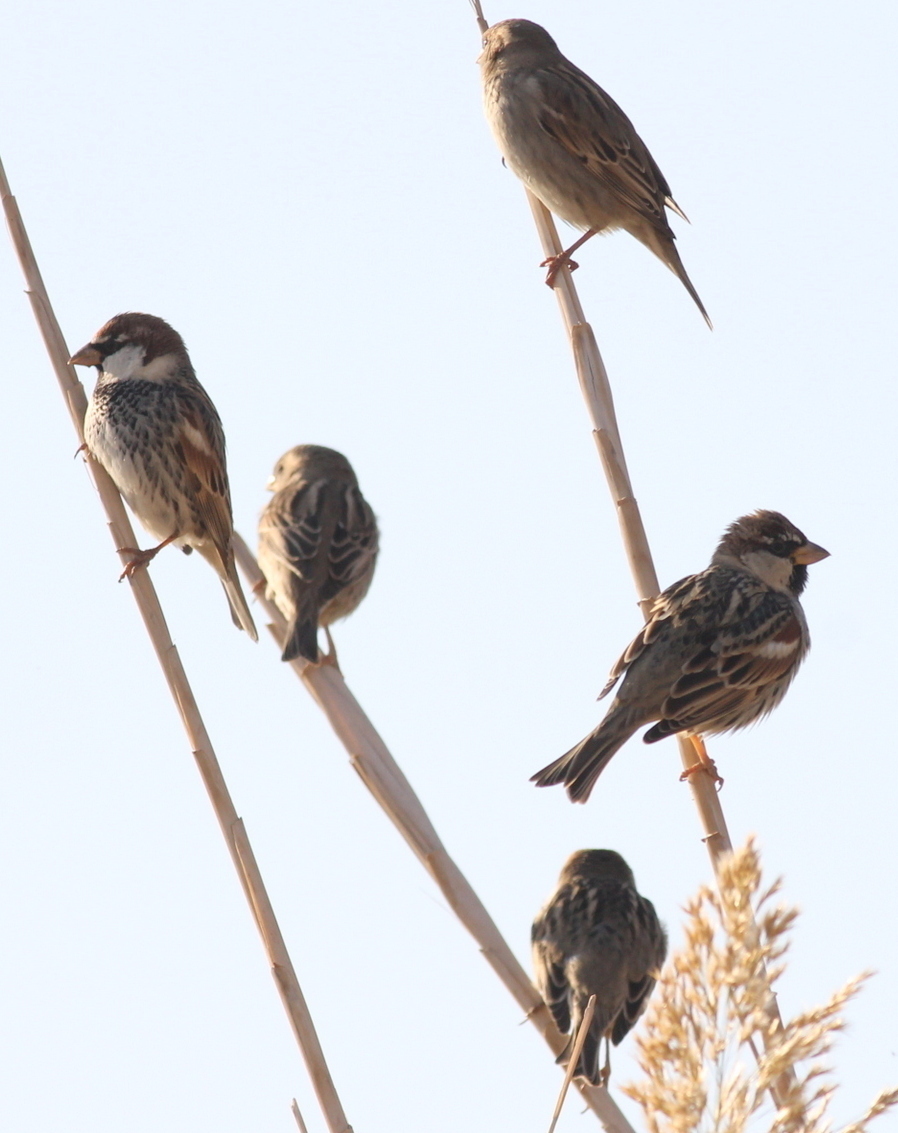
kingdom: Animalia
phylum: Chordata
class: Aves
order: Passeriformes
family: Passeridae
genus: Passer
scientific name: Passer hispaniolensis
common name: Spanish sparrow
